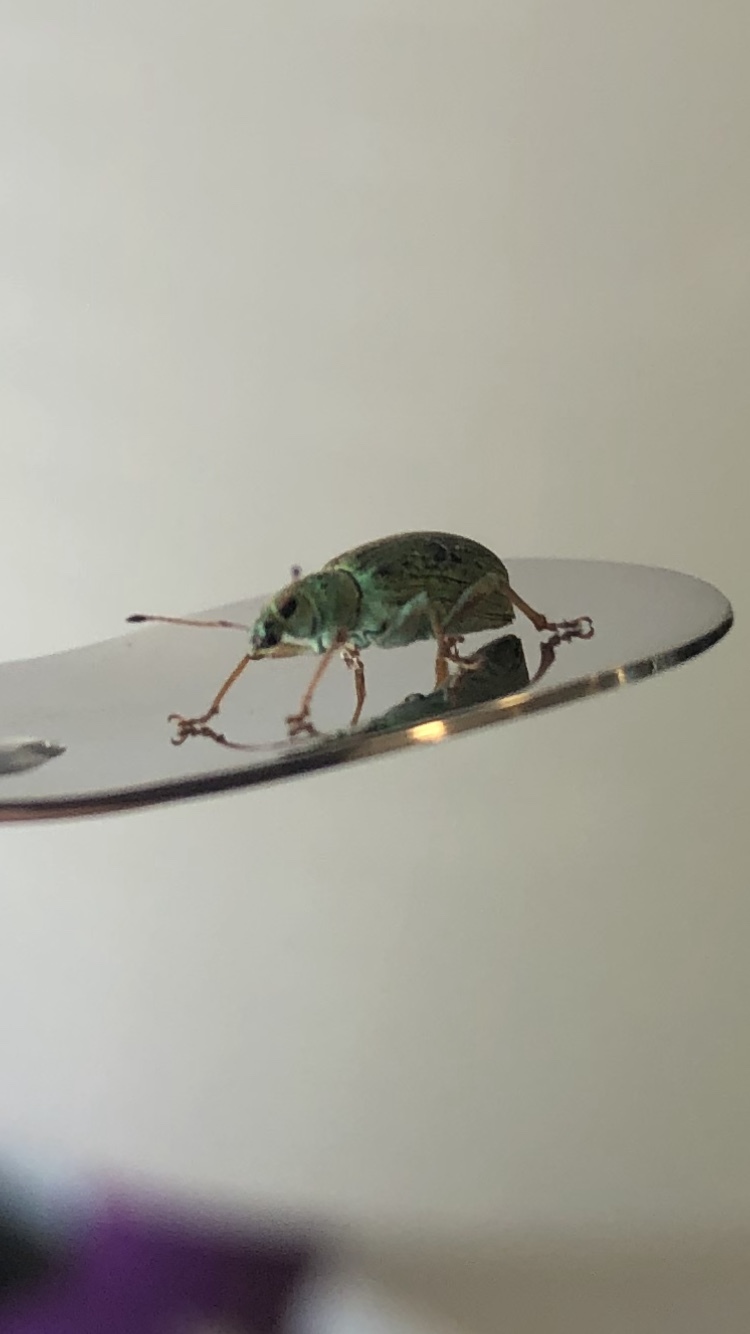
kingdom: Animalia
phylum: Arthropoda
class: Insecta
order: Coleoptera
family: Curculionidae
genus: Polydrusus
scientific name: Polydrusus formosus
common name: Weevil
